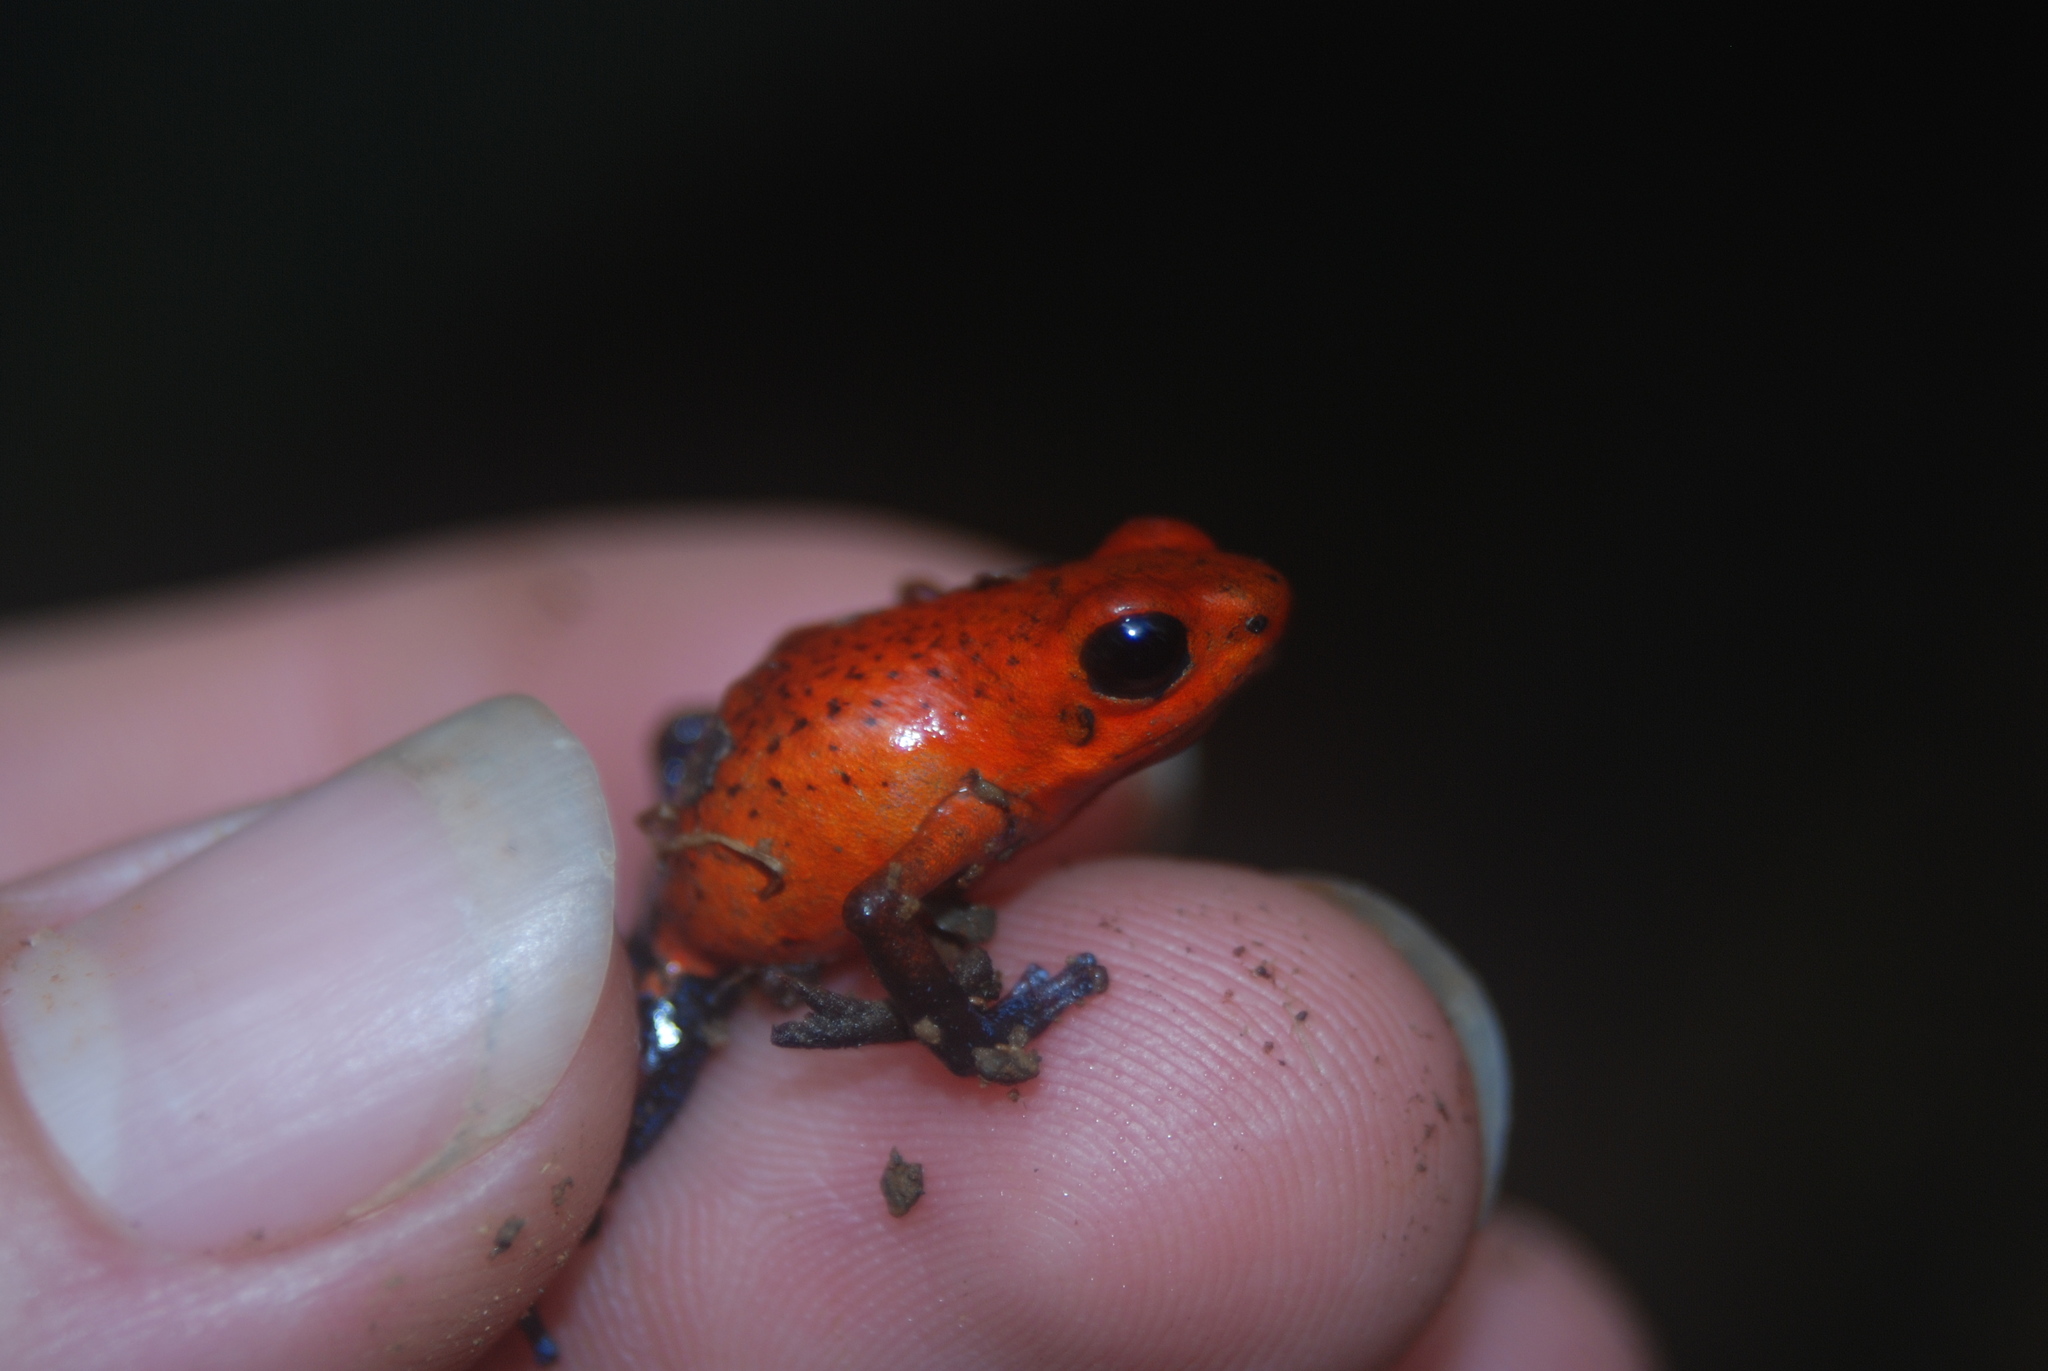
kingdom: Animalia
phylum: Chordata
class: Amphibia
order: Anura
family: Dendrobatidae
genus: Oophaga
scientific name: Oophaga pumilio
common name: Flaming poison frog
